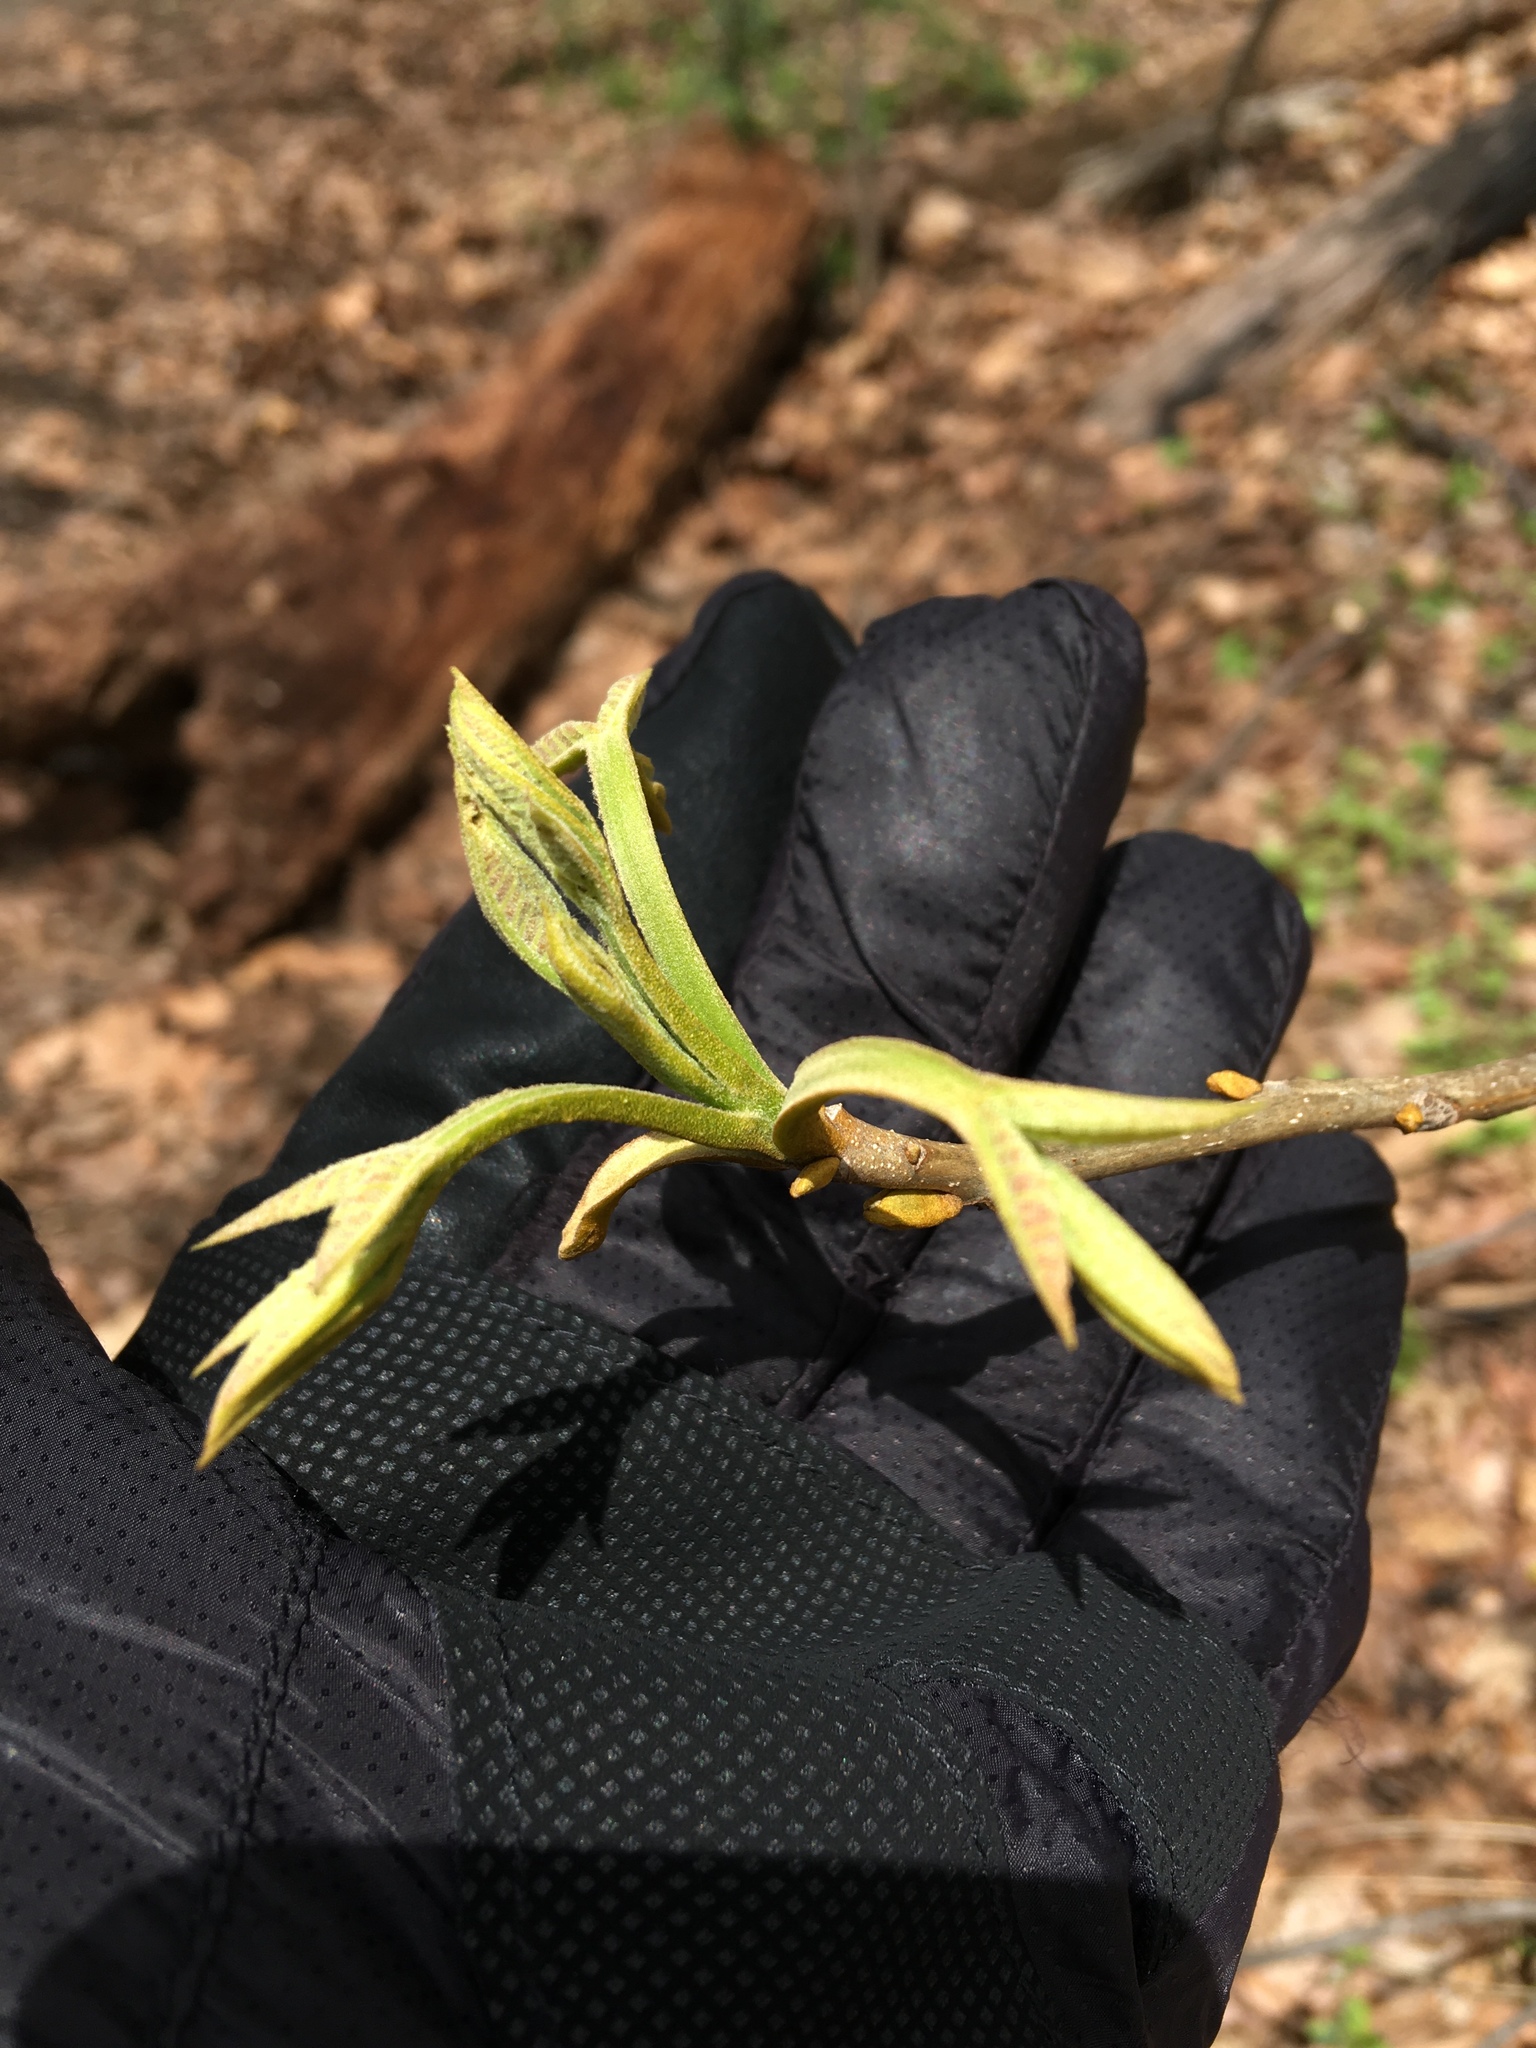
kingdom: Plantae
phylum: Tracheophyta
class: Magnoliopsida
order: Fagales
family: Juglandaceae
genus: Carya
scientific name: Carya cordiformis
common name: Bitternut hickory
